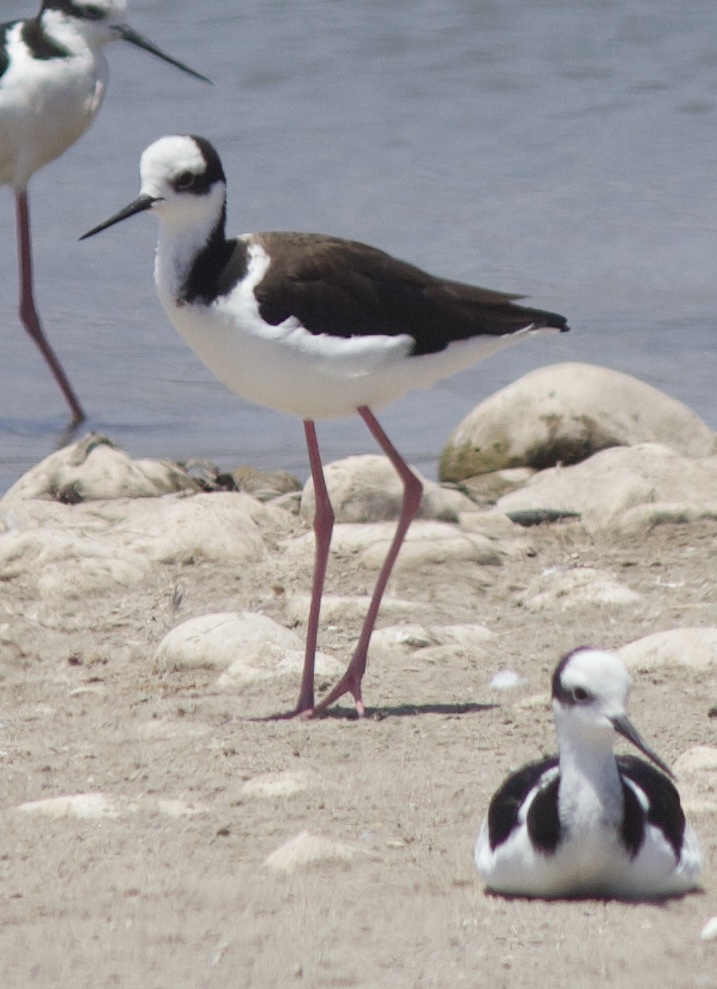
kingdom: Animalia
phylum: Chordata
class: Aves
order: Charadriiformes
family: Recurvirostridae
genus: Himantopus
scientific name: Himantopus mexicanus
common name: Black-necked stilt
